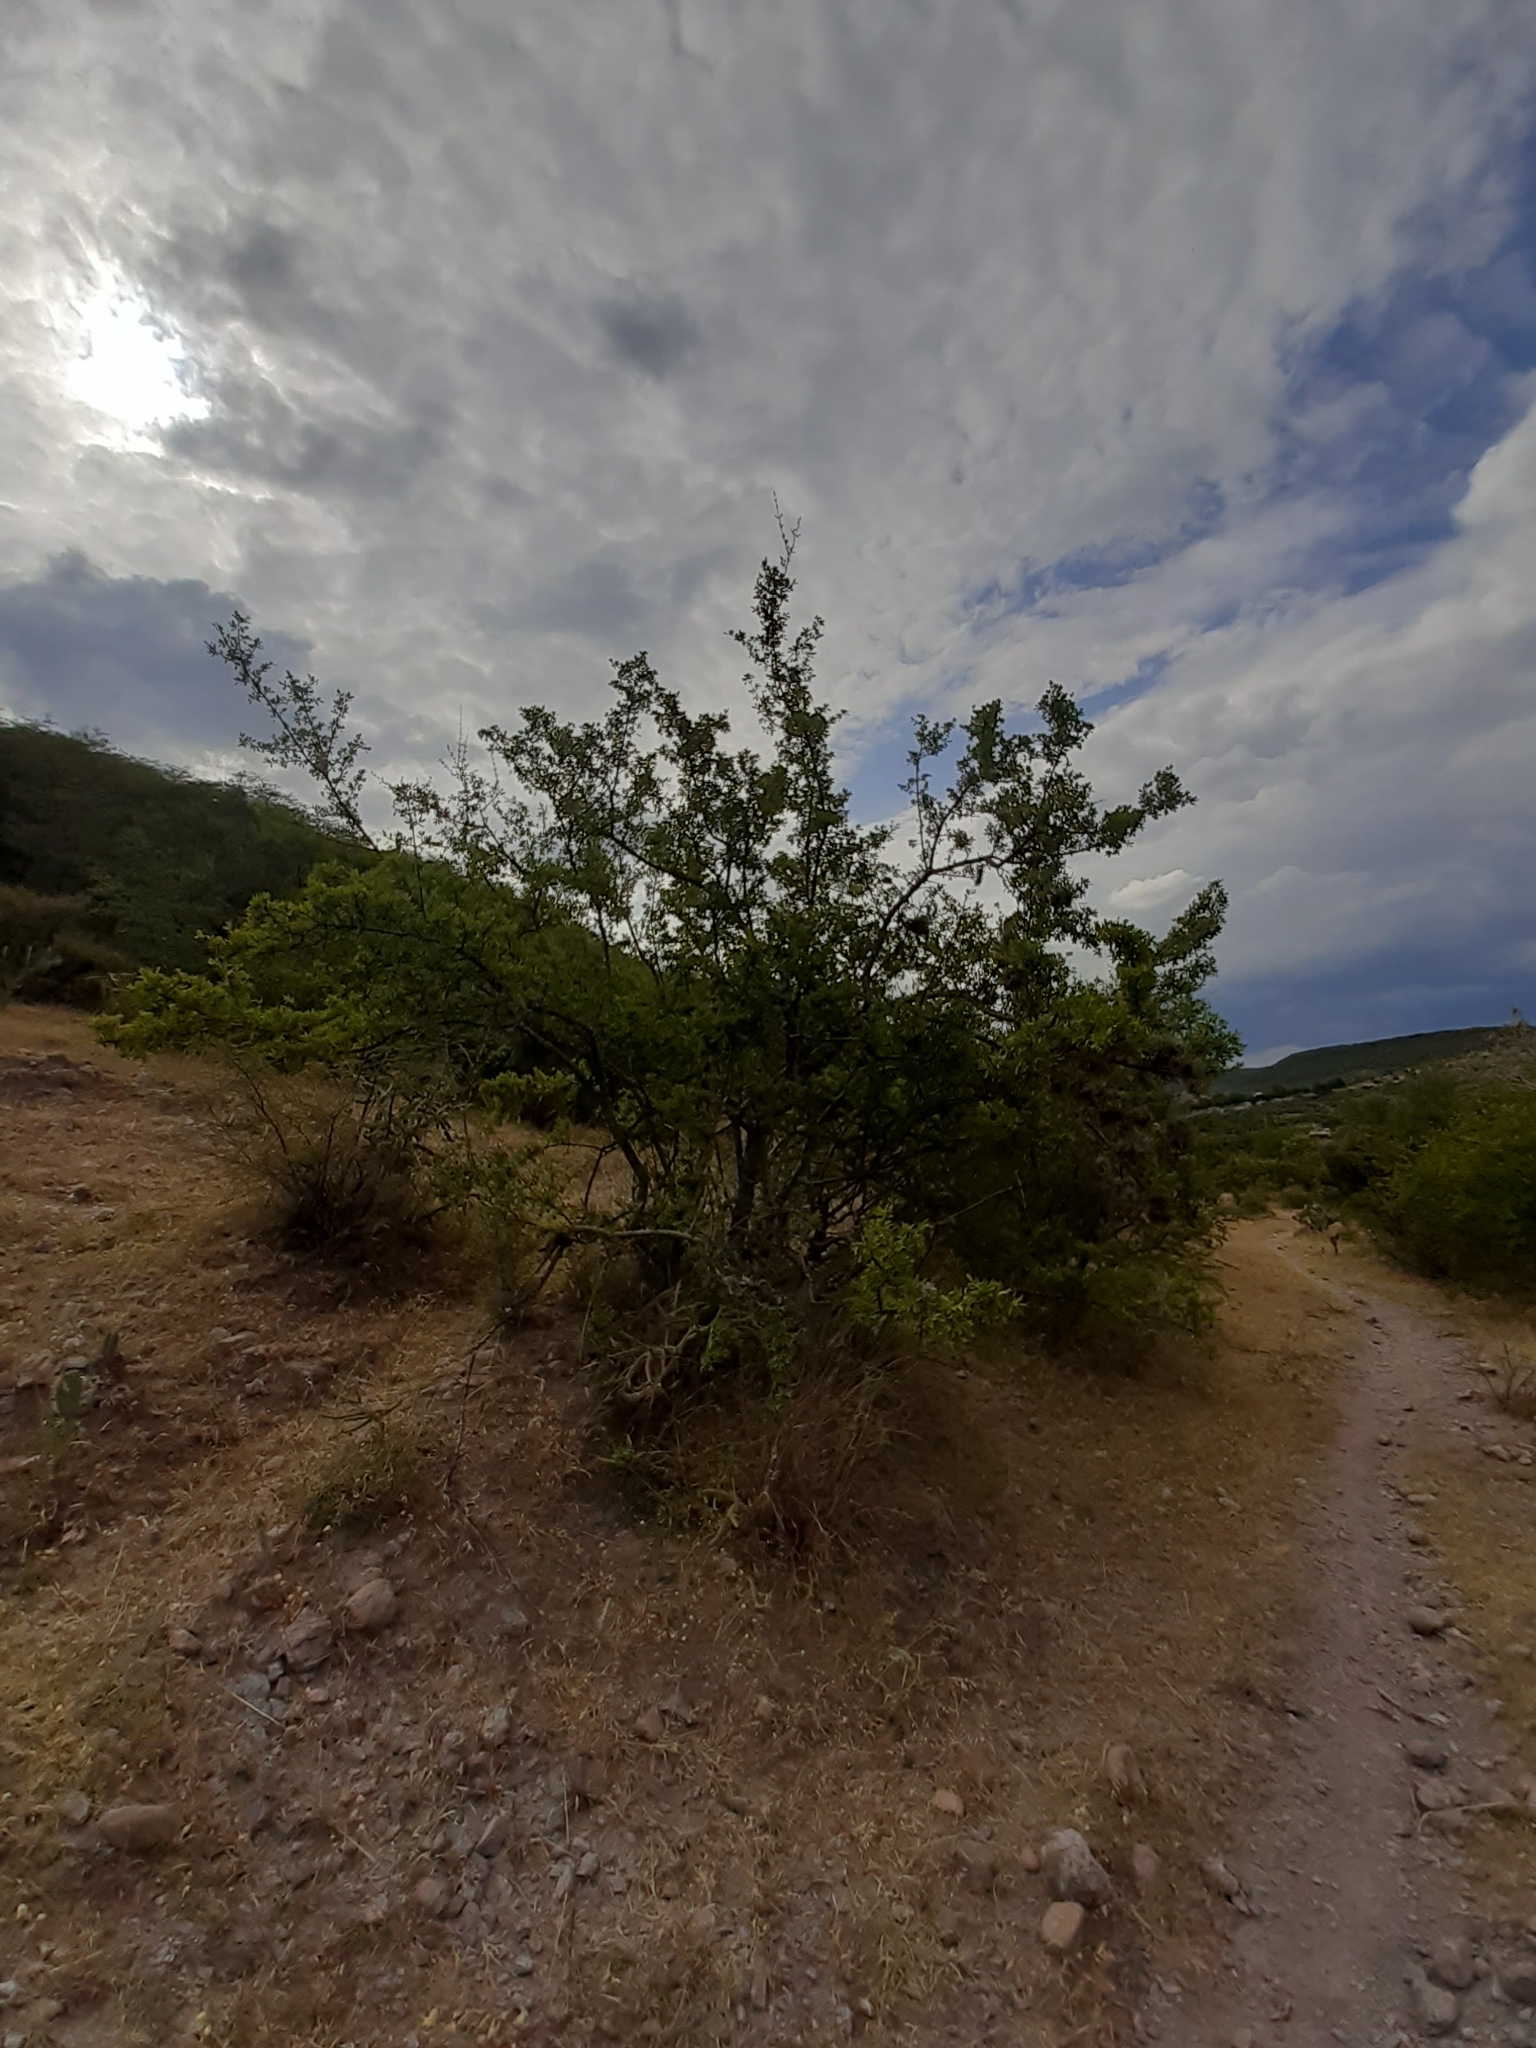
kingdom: Plantae
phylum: Tracheophyta
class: Magnoliopsida
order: Lamiales
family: Oleaceae
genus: Forestiera
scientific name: Forestiera phillyreoides
